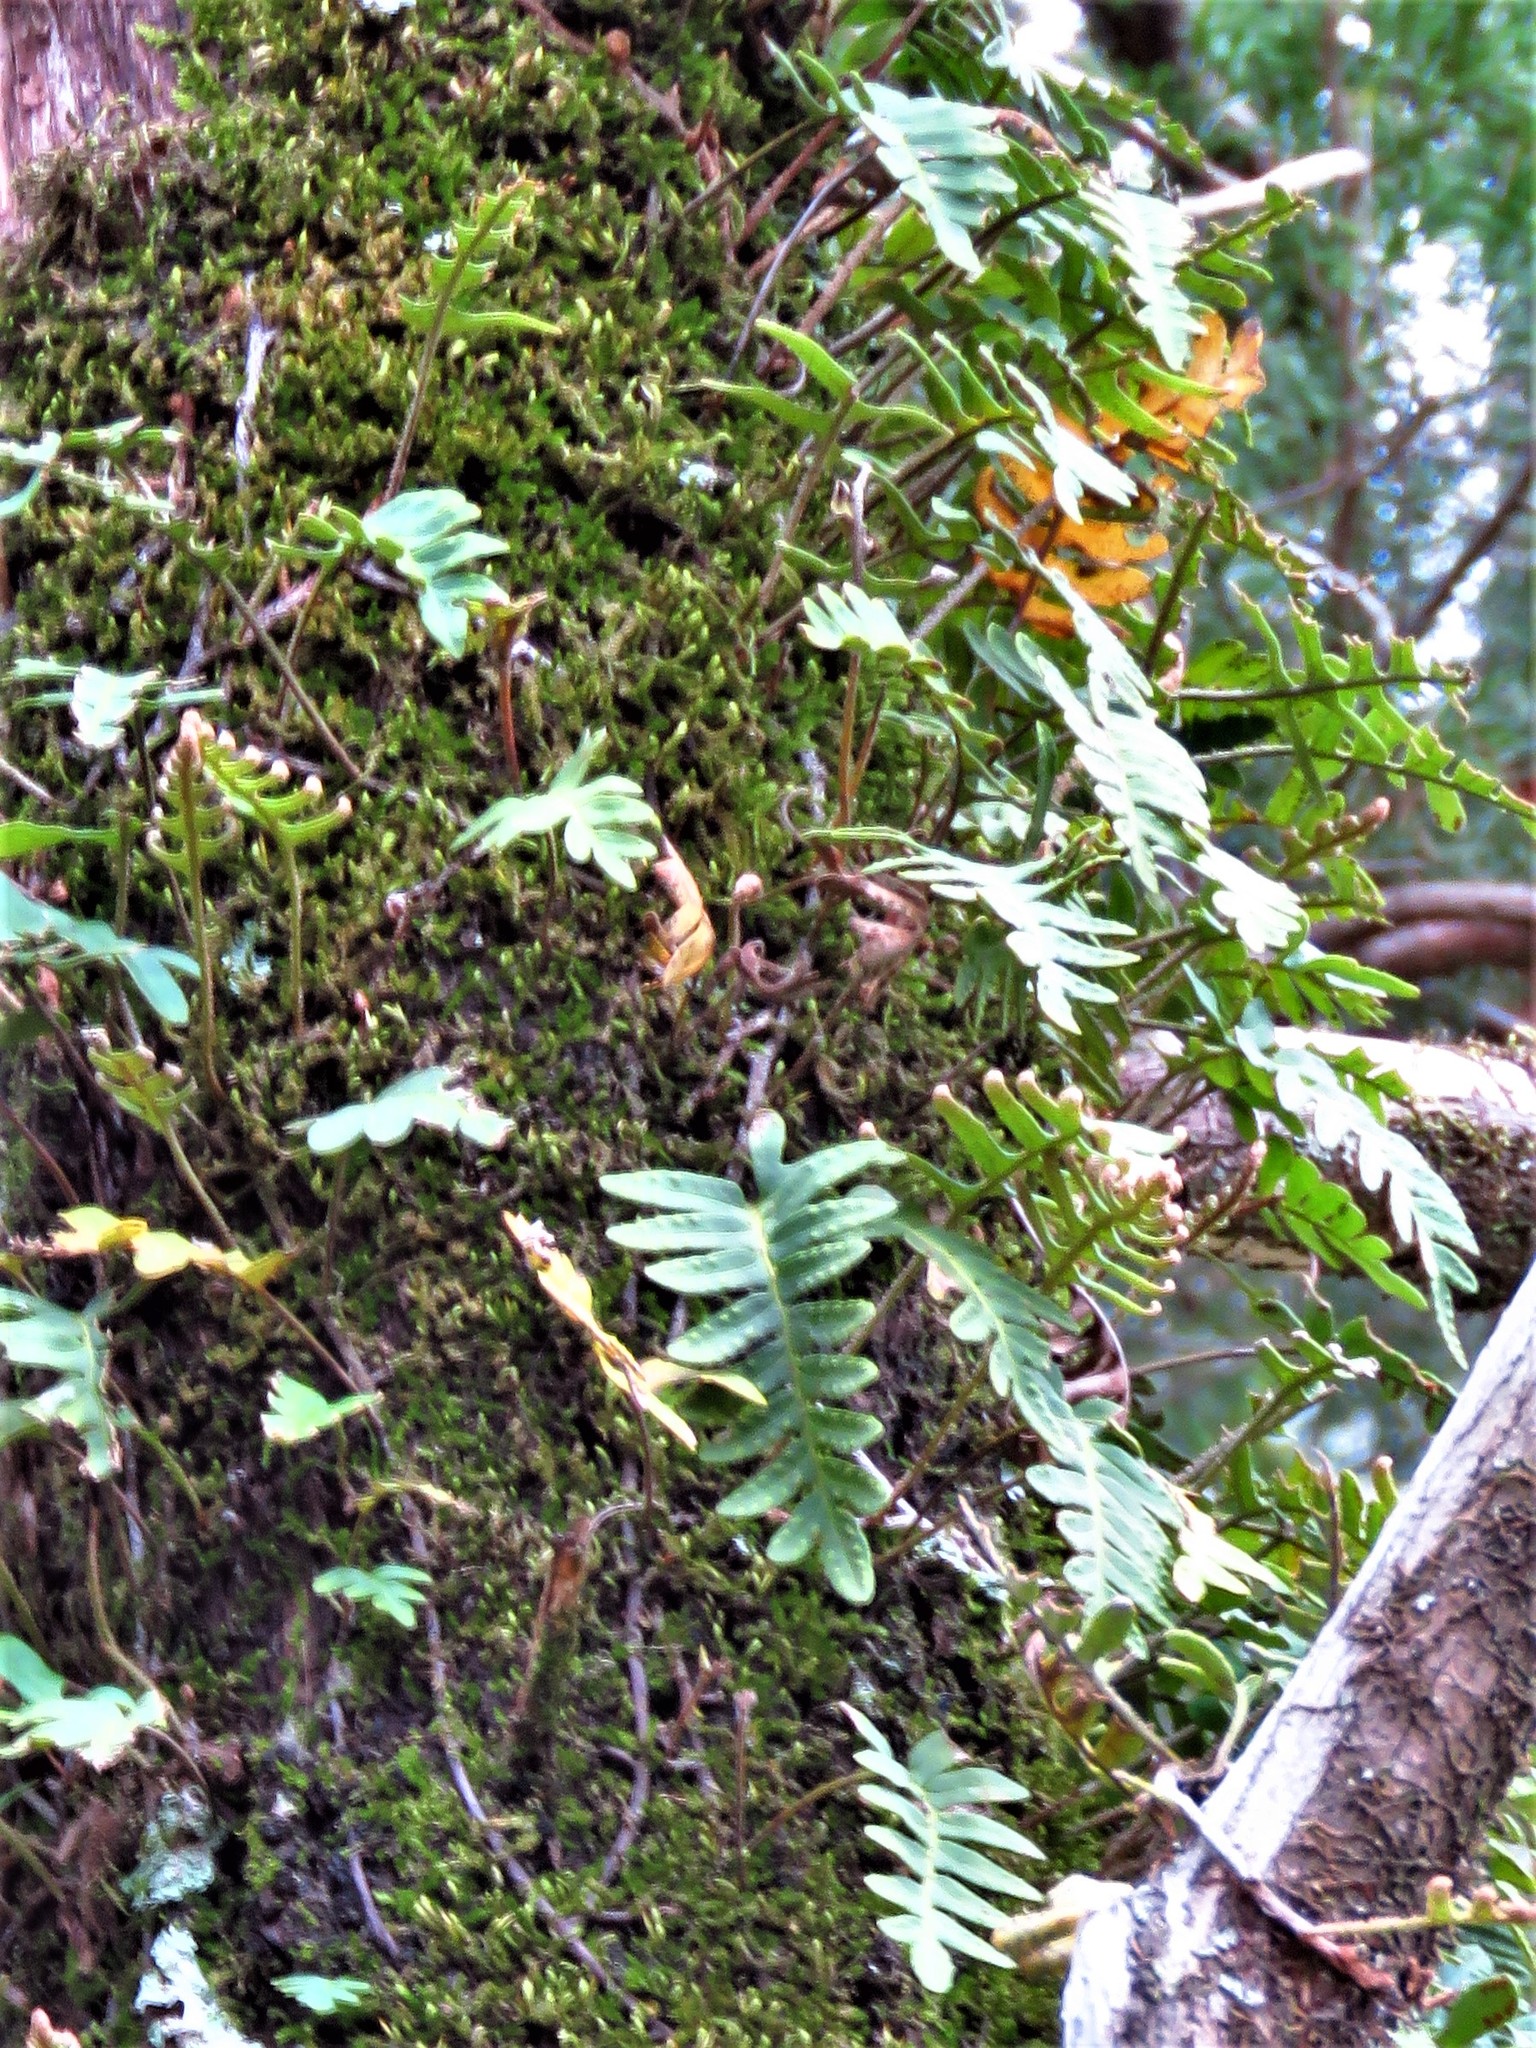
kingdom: Plantae
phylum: Tracheophyta
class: Polypodiopsida
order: Polypodiales
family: Polypodiaceae
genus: Pleopeltis
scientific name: Pleopeltis michauxiana
